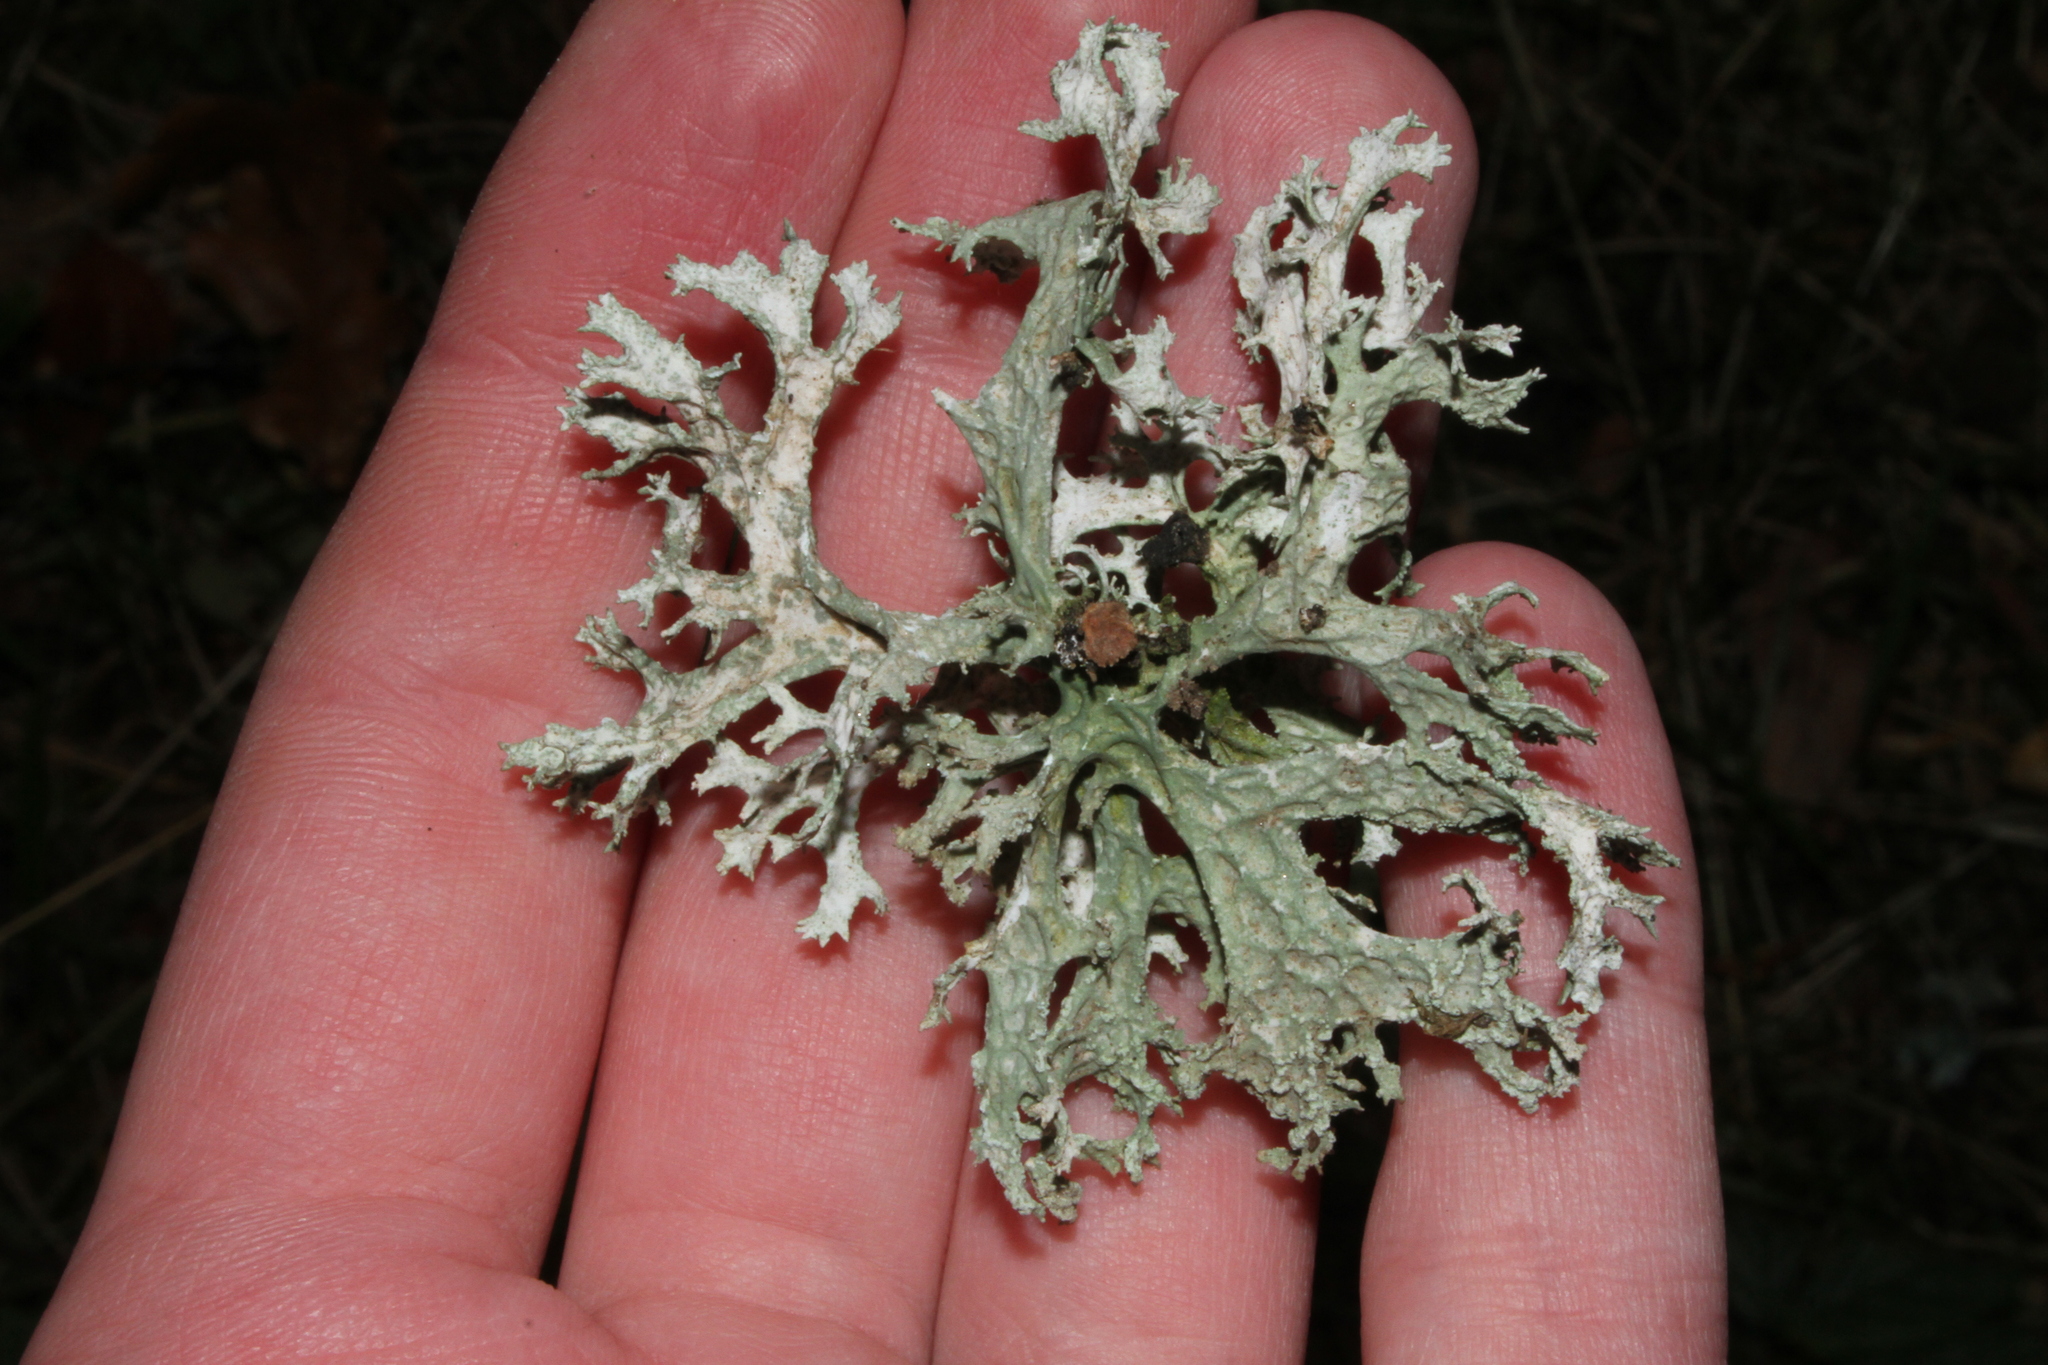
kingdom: Fungi
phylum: Ascomycota
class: Lecanoromycetes
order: Lecanorales
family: Parmeliaceae
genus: Evernia
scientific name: Evernia prunastri
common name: Oak moss
